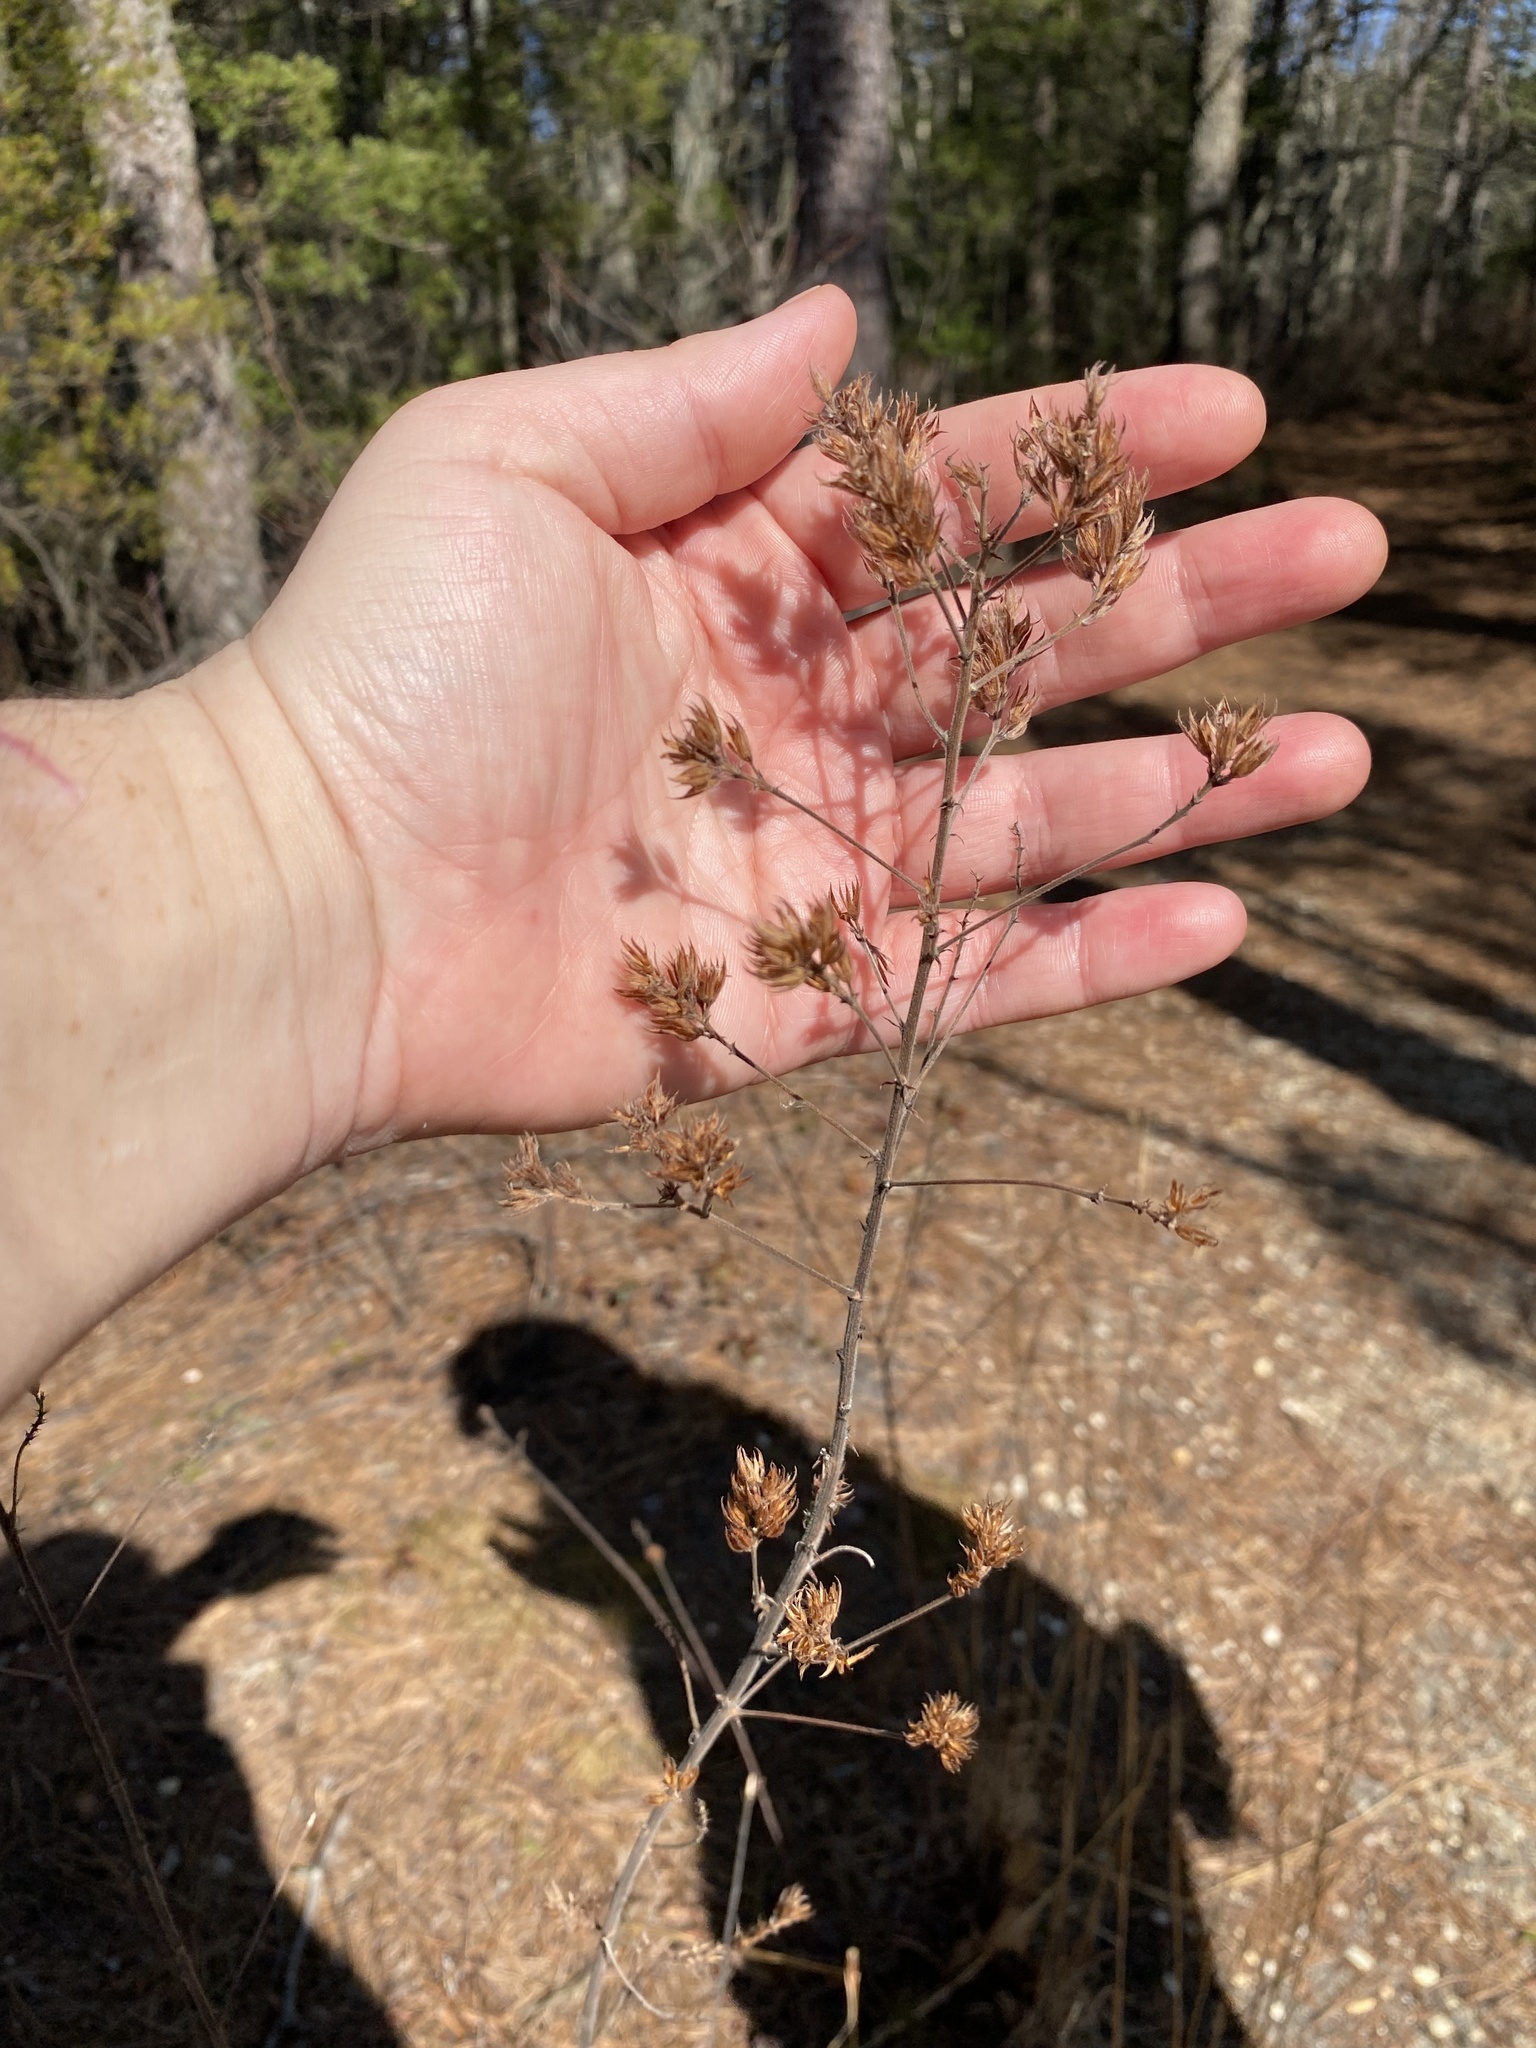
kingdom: Plantae
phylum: Tracheophyta
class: Magnoliopsida
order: Fabales
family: Fabaceae
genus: Lespedeza
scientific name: Lespedeza hirta
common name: Hairy lespedeza
